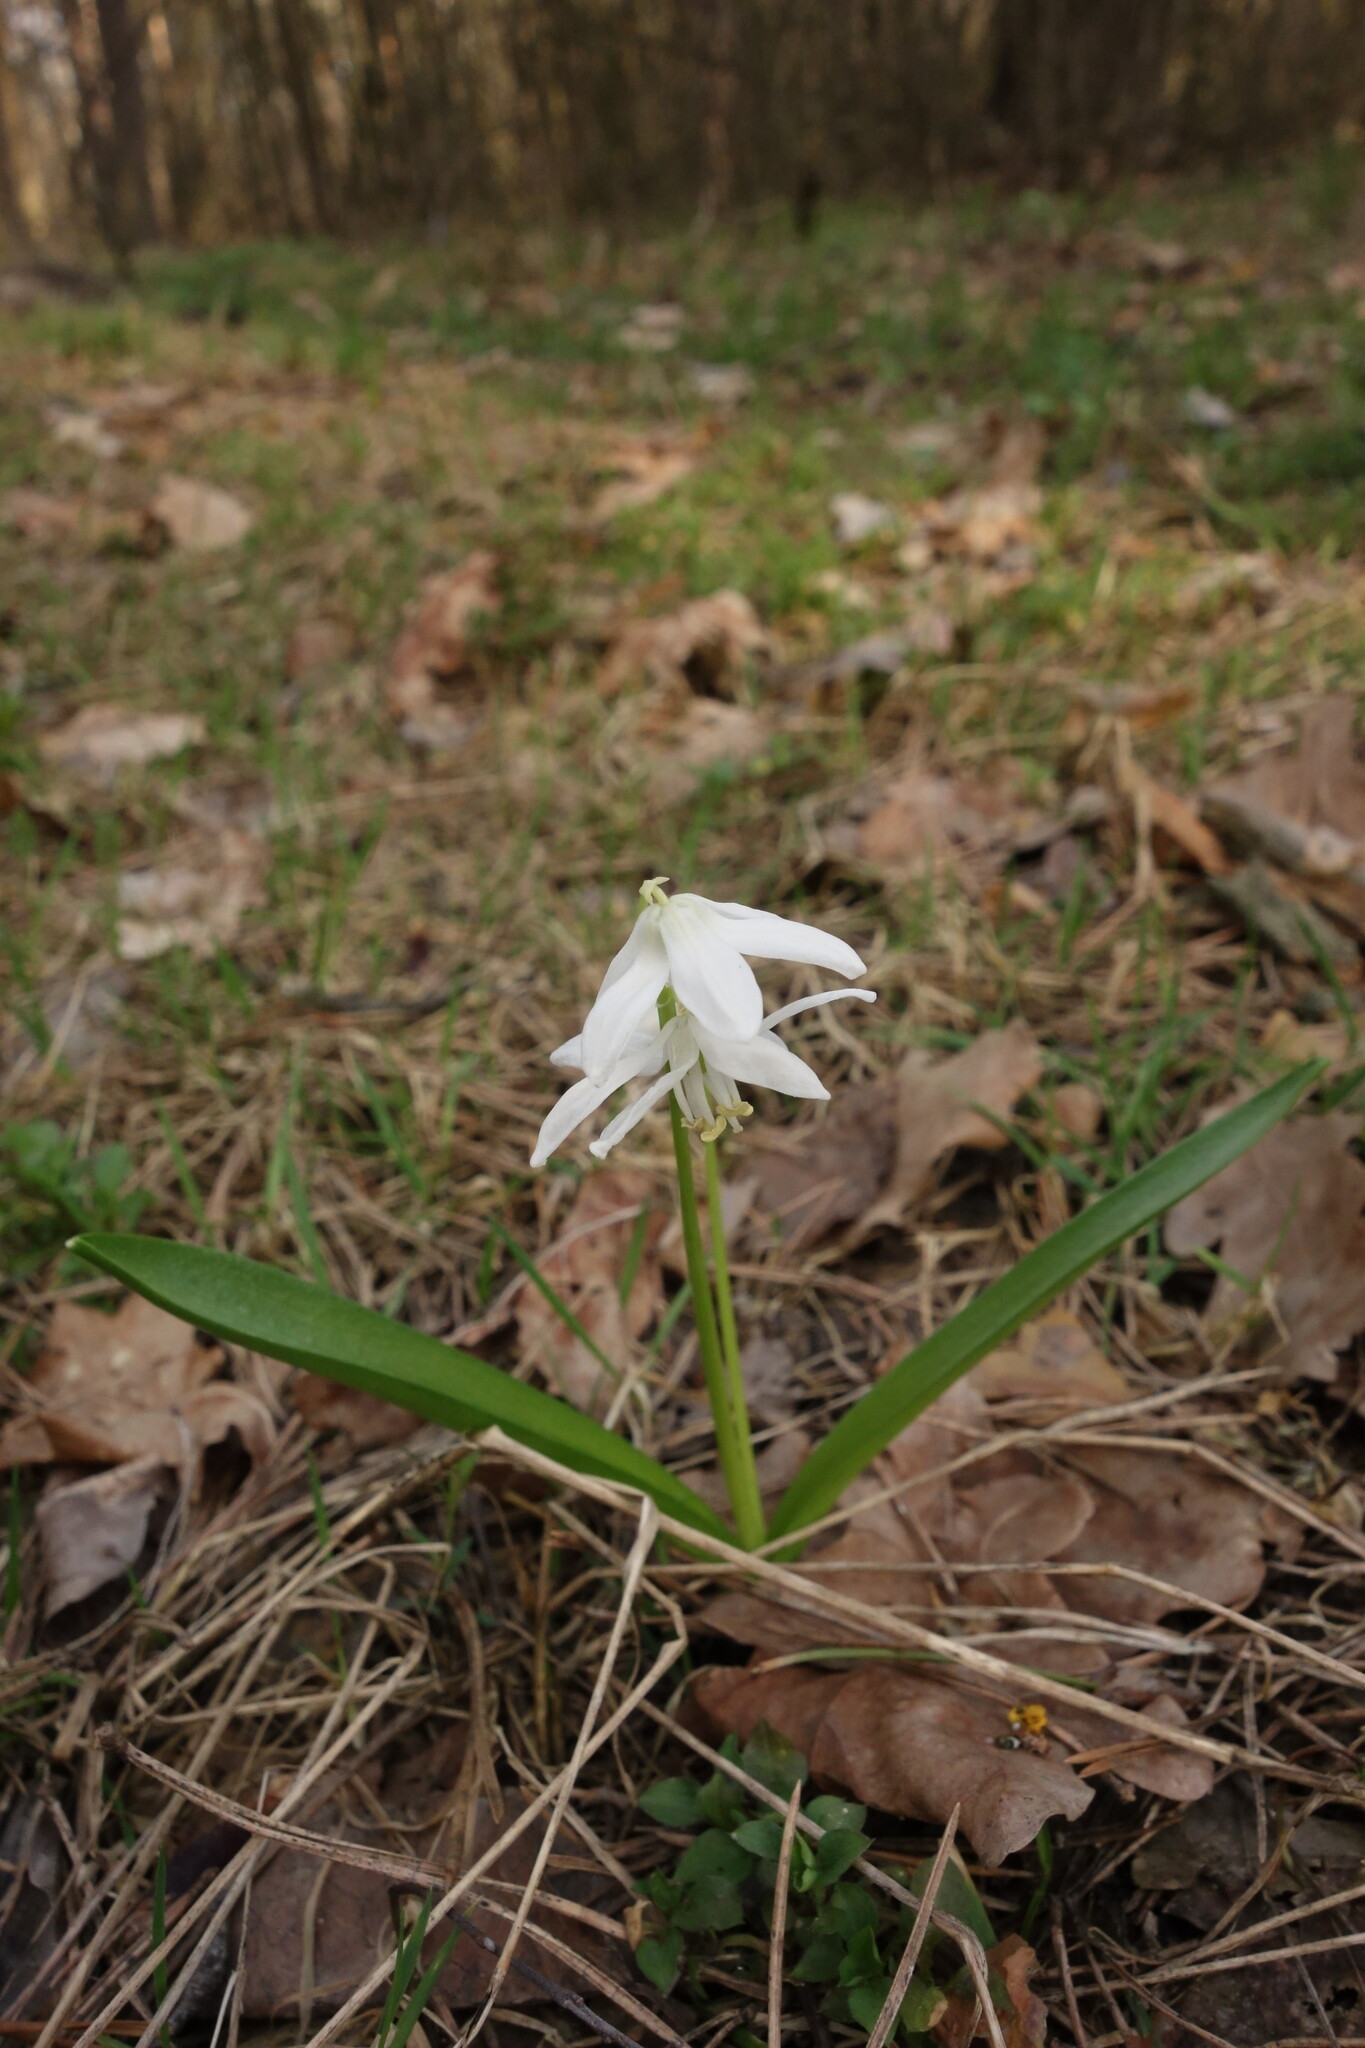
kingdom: Plantae
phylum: Tracheophyta
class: Liliopsida
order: Asparagales
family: Asparagaceae
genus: Scilla
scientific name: Scilla siberica
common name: Siberian squill
